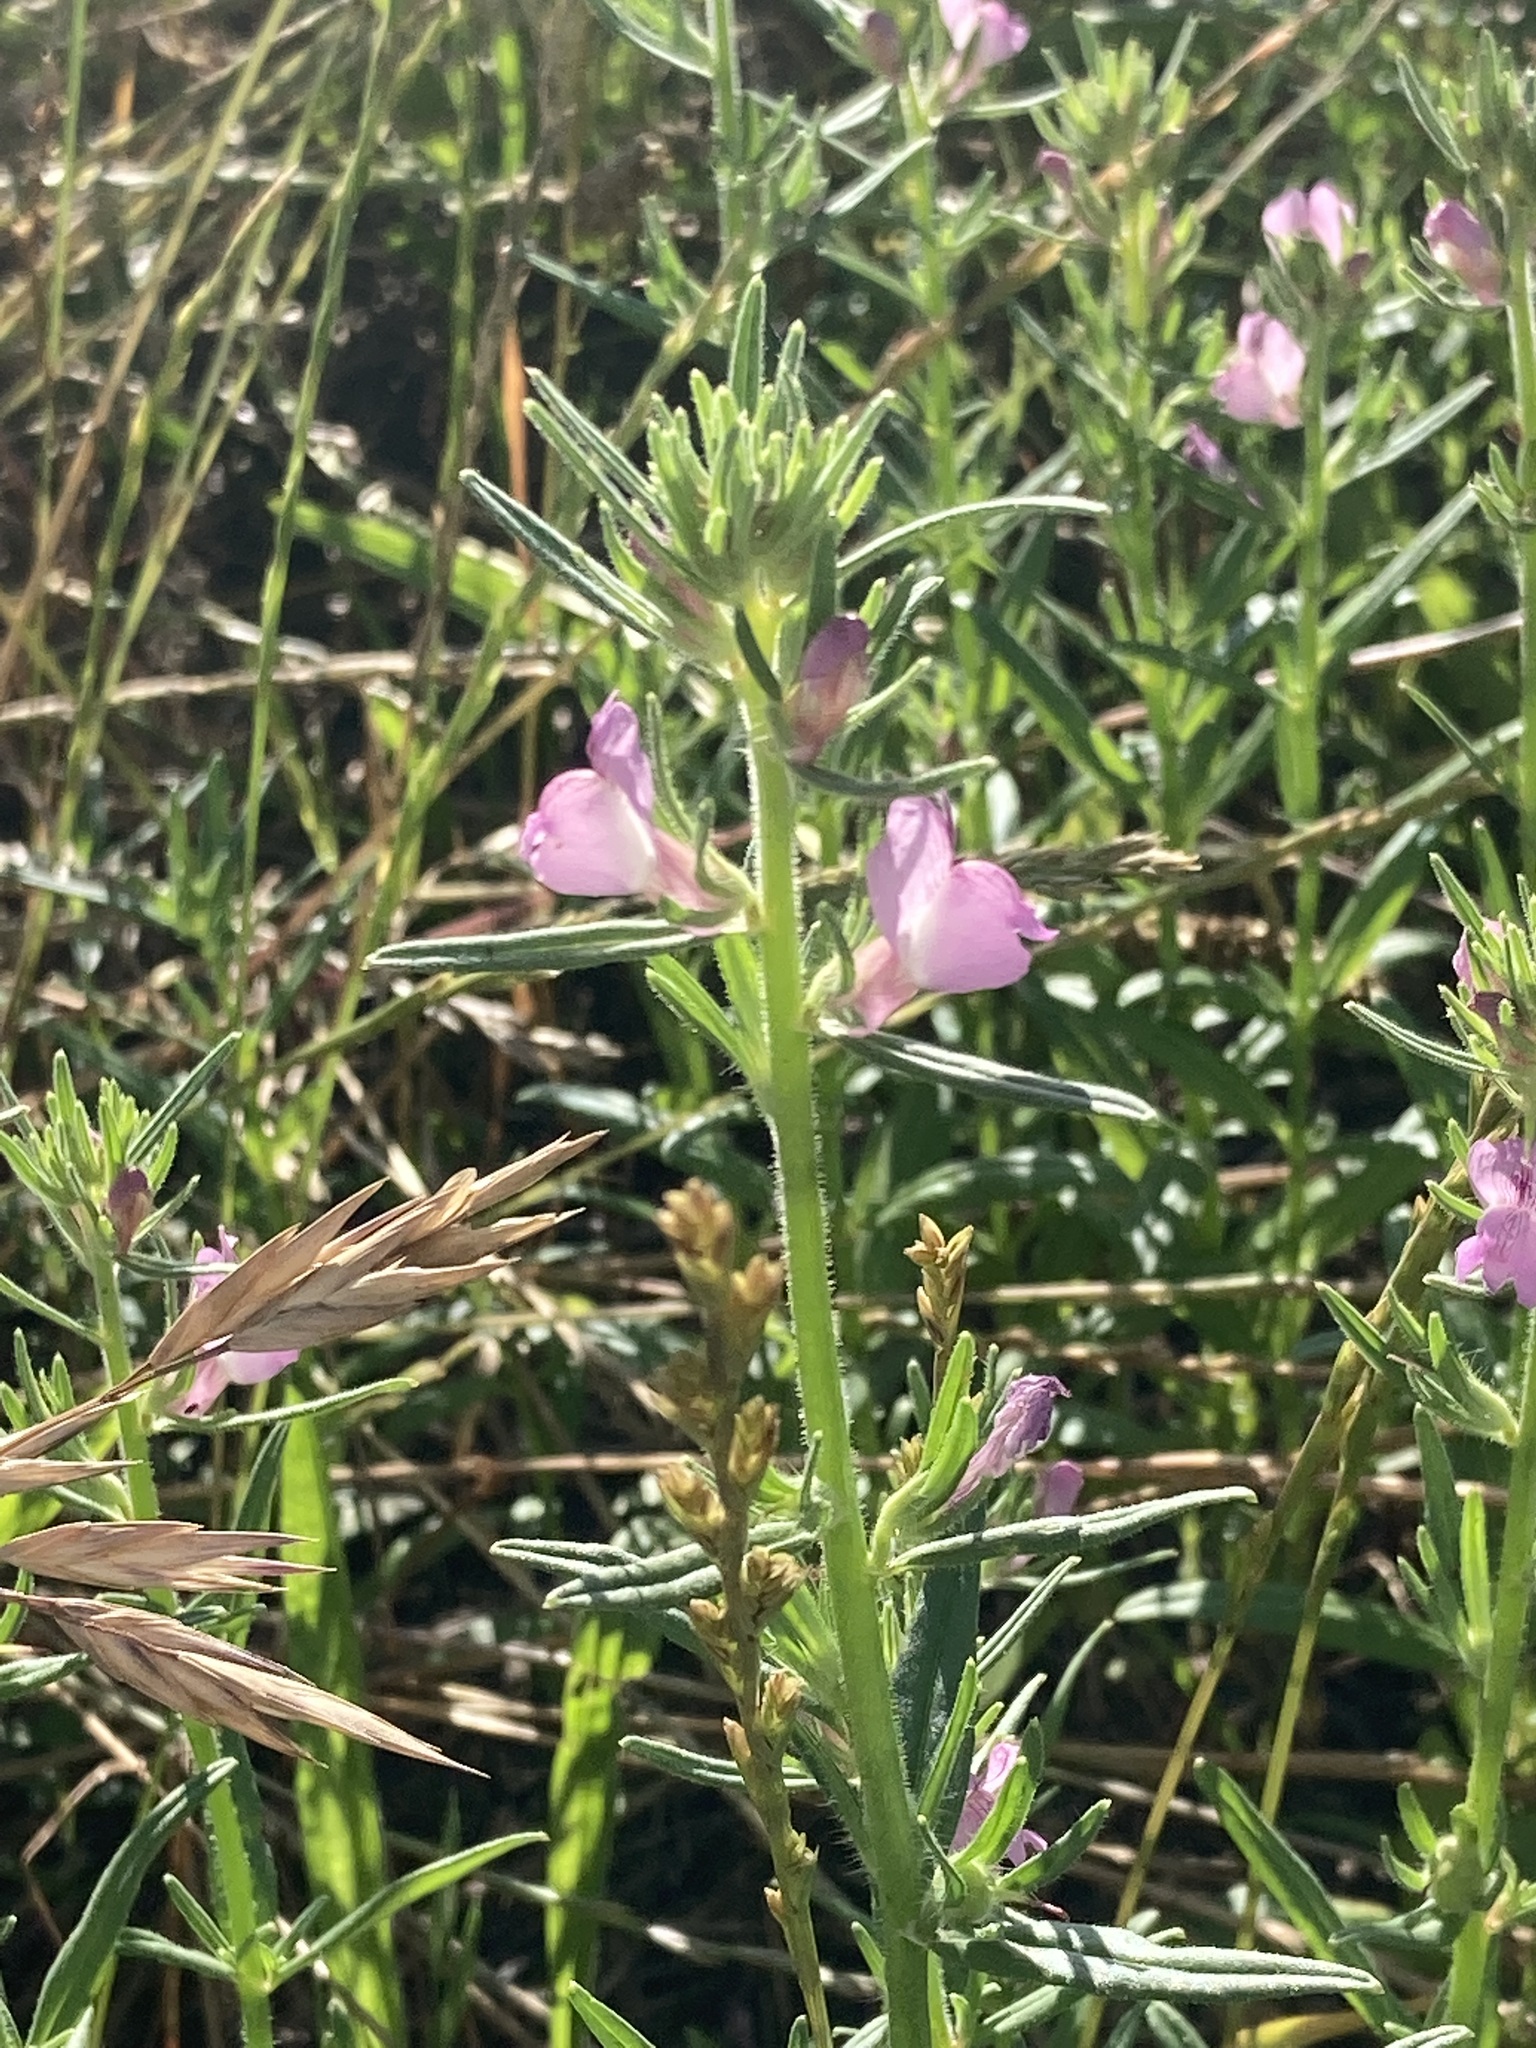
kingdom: Plantae
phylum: Tracheophyta
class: Magnoliopsida
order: Lamiales
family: Plantaginaceae
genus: Misopates
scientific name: Misopates orontium
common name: Weasel's-snout
